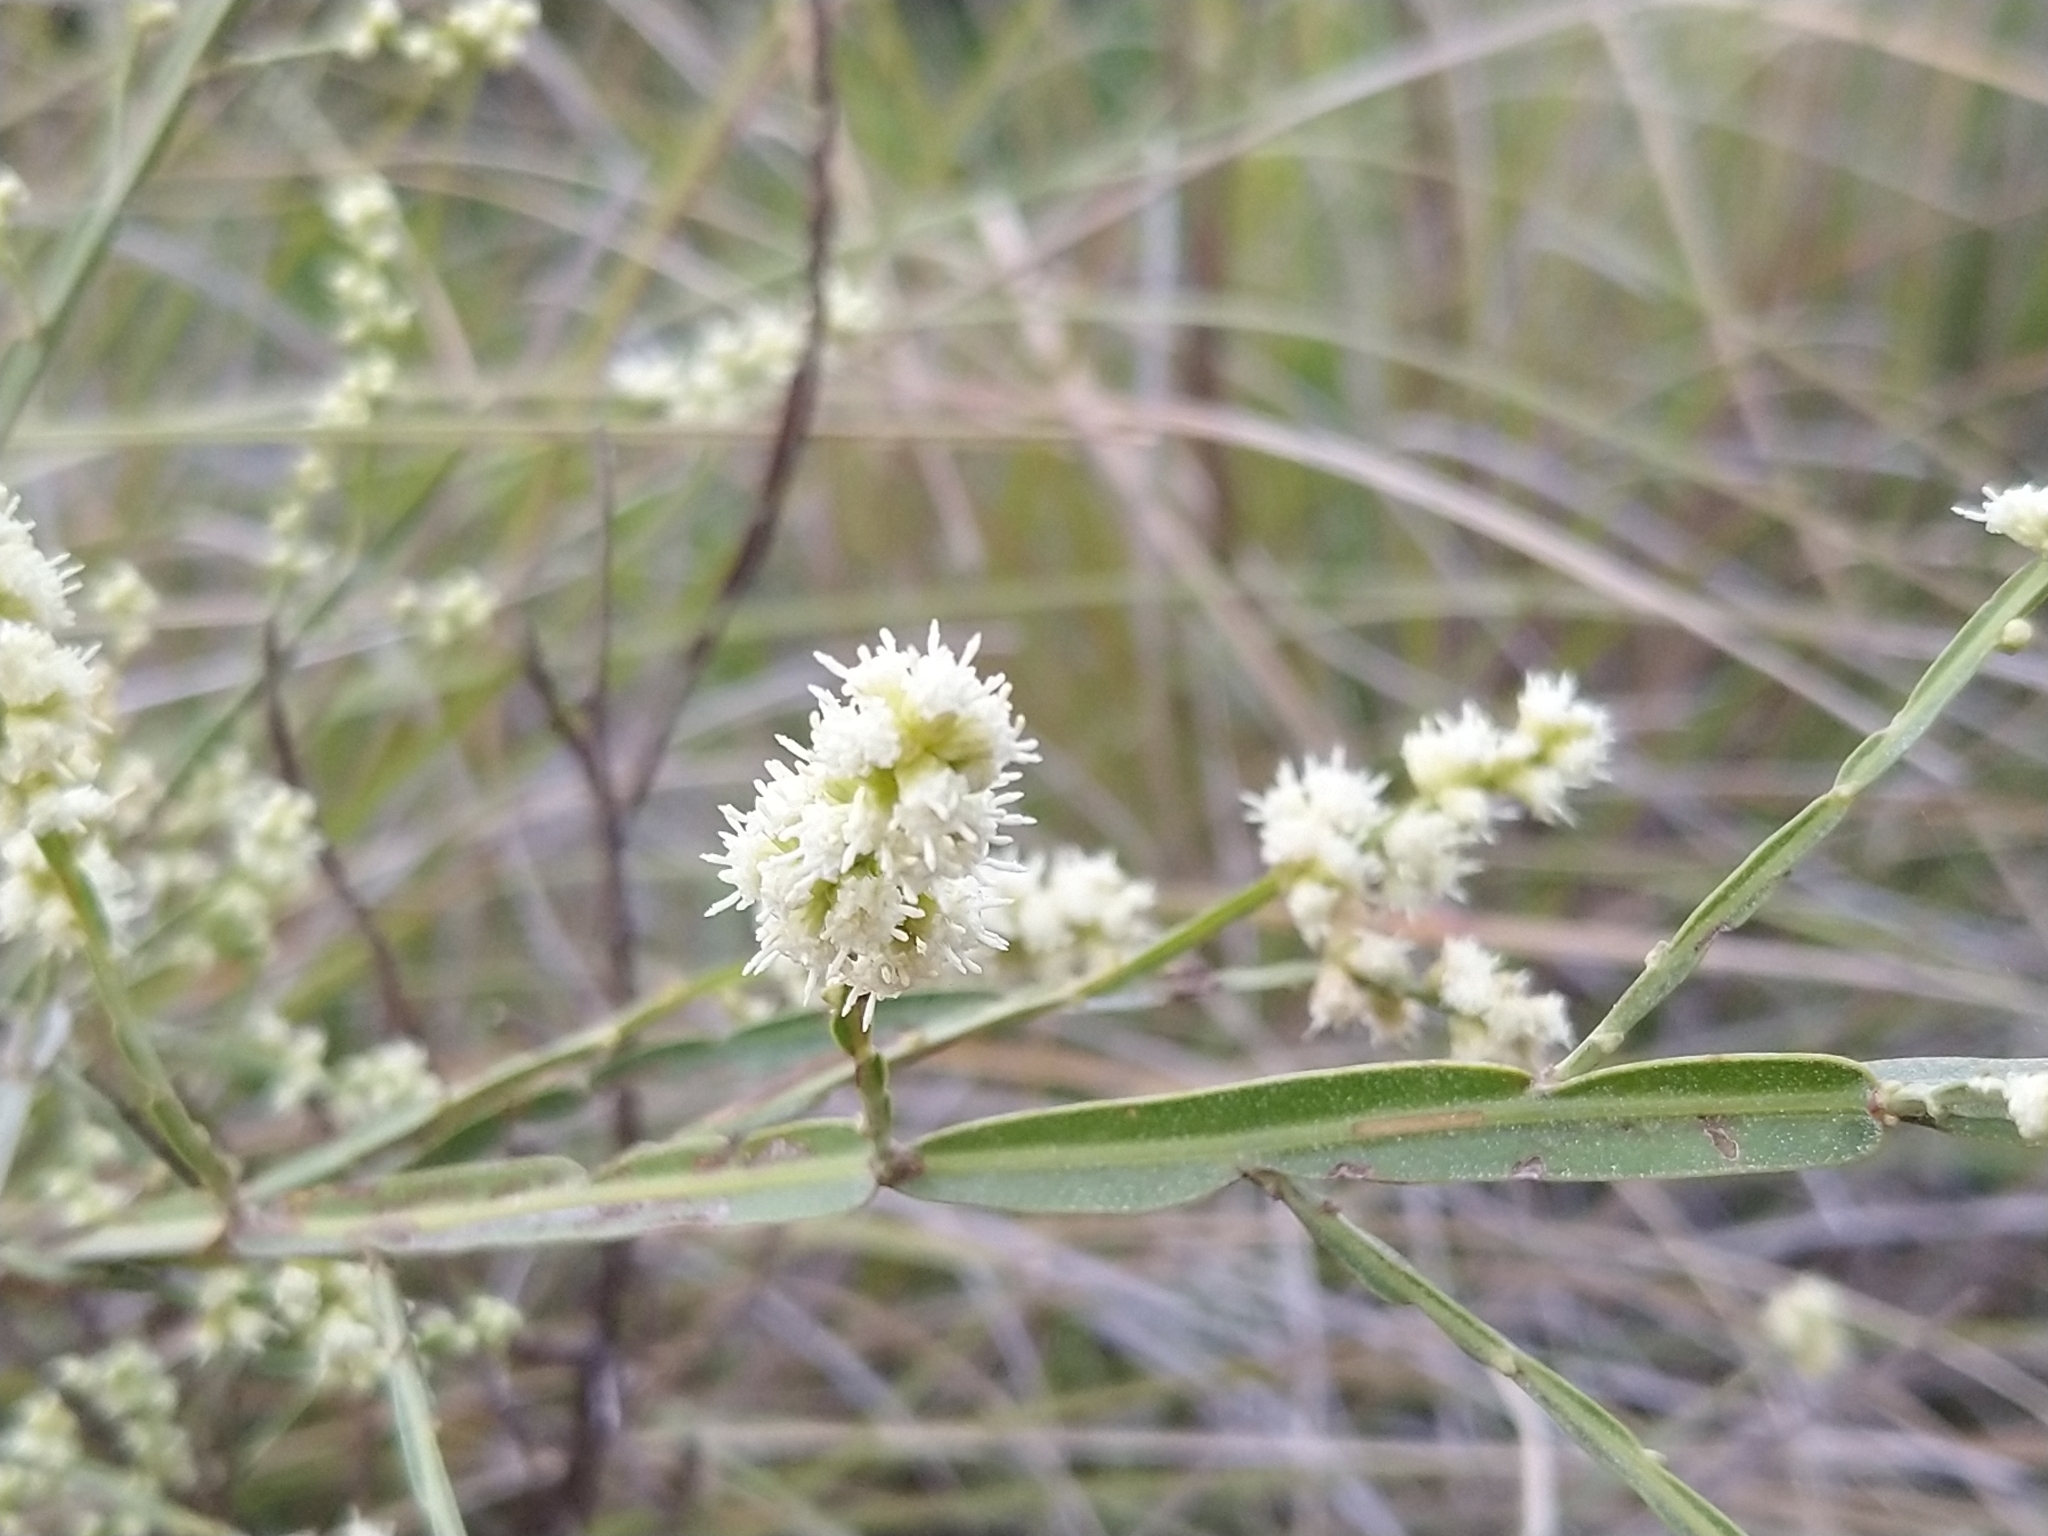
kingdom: Plantae
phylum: Tracheophyta
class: Magnoliopsida
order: Asterales
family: Asteraceae
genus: Baccharis
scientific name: Baccharis trimera
